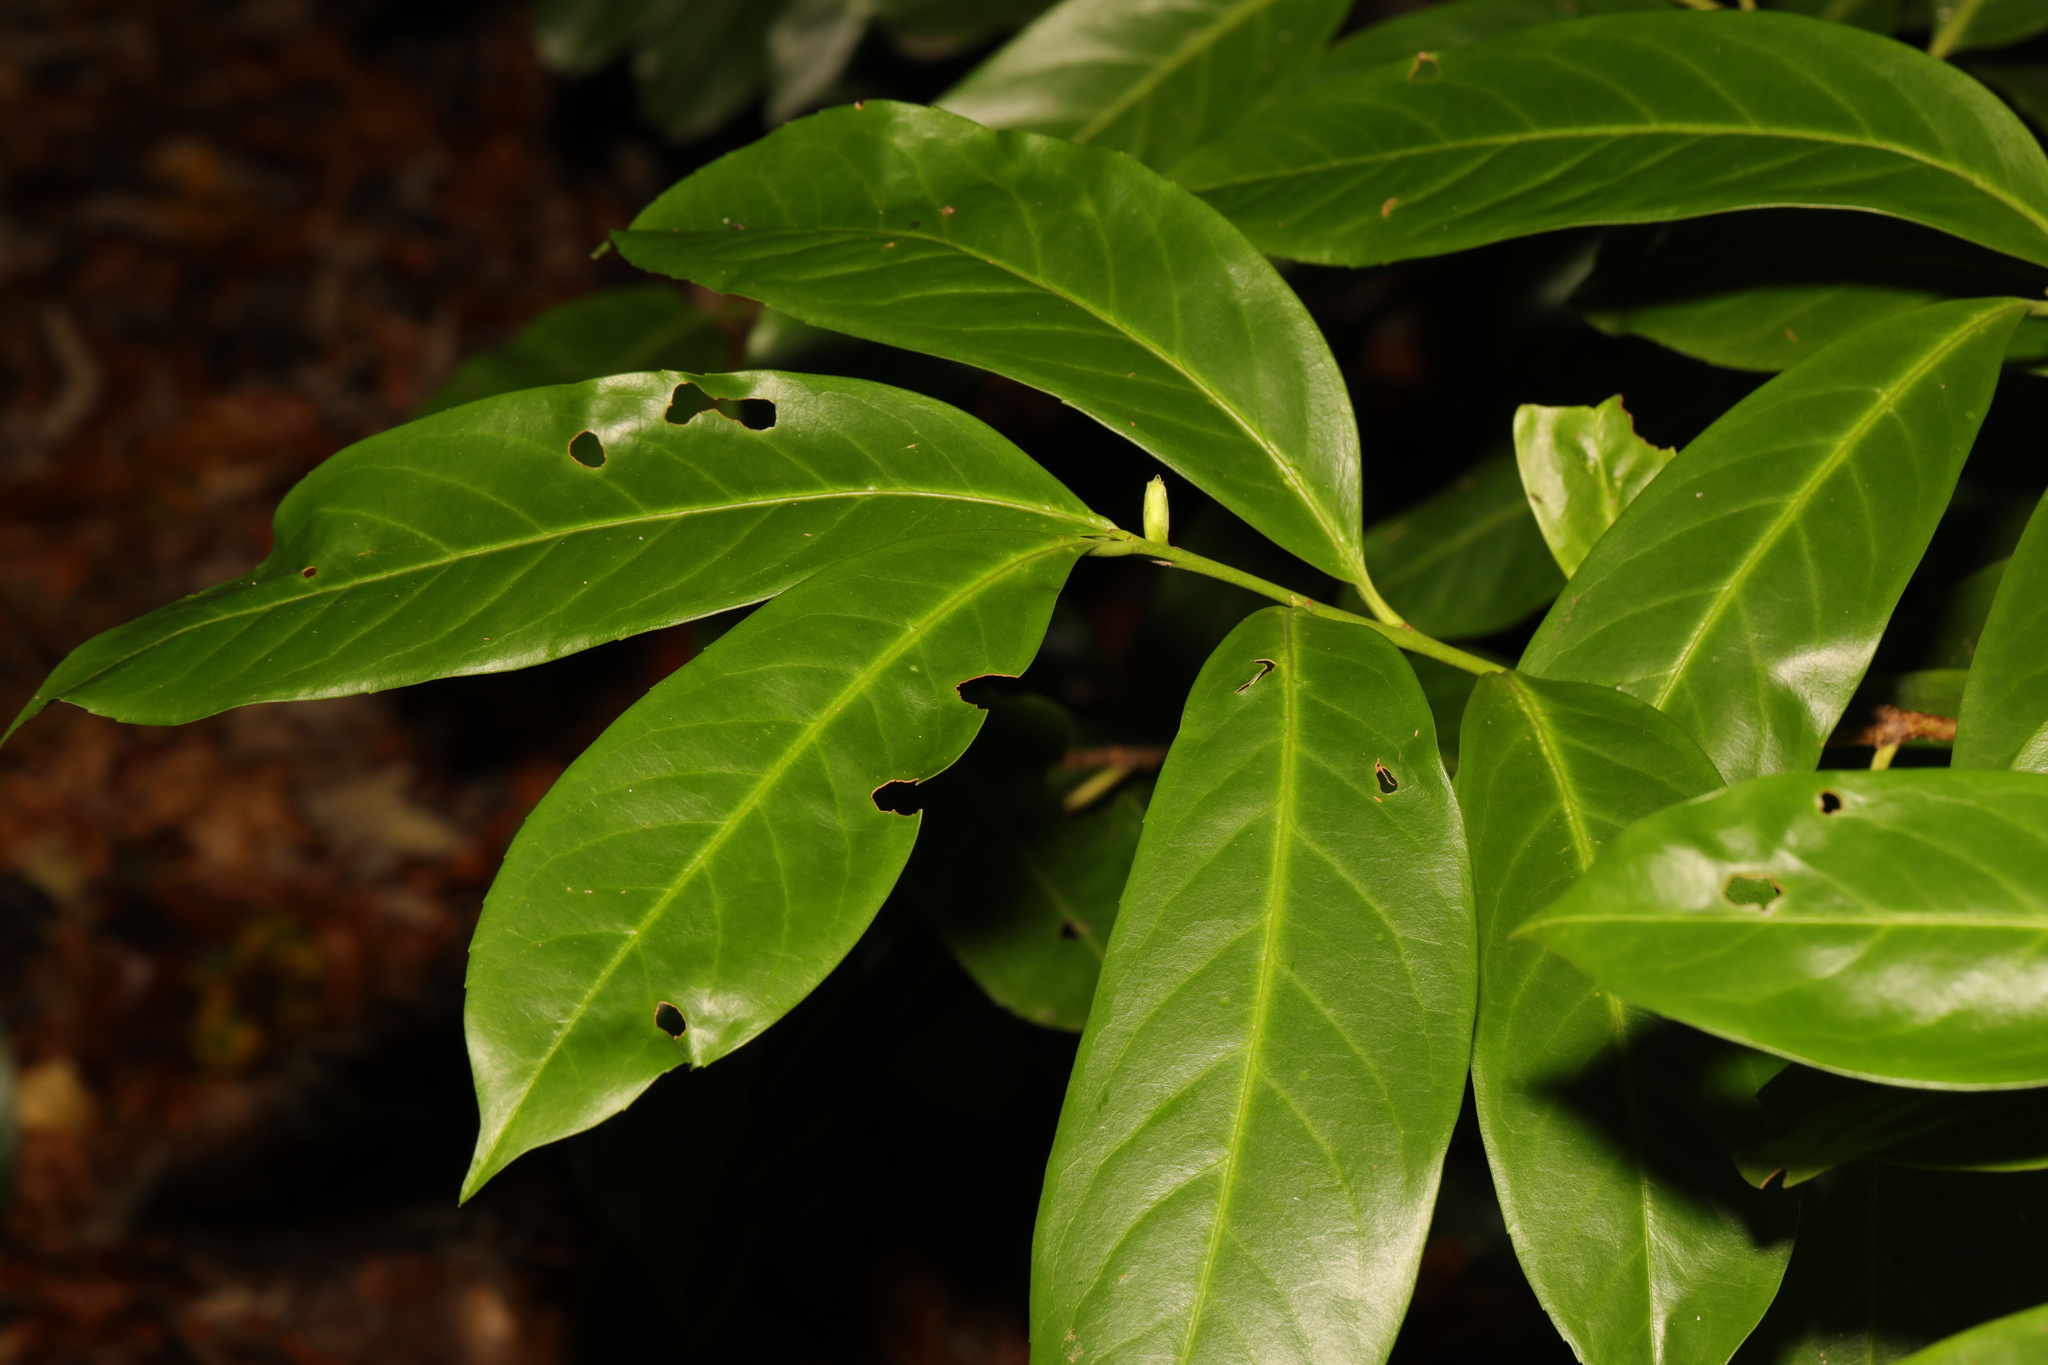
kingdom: Plantae
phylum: Tracheophyta
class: Magnoliopsida
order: Rosales
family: Rosaceae
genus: Prunus
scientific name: Prunus laurocerasus
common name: Cherry laurel
